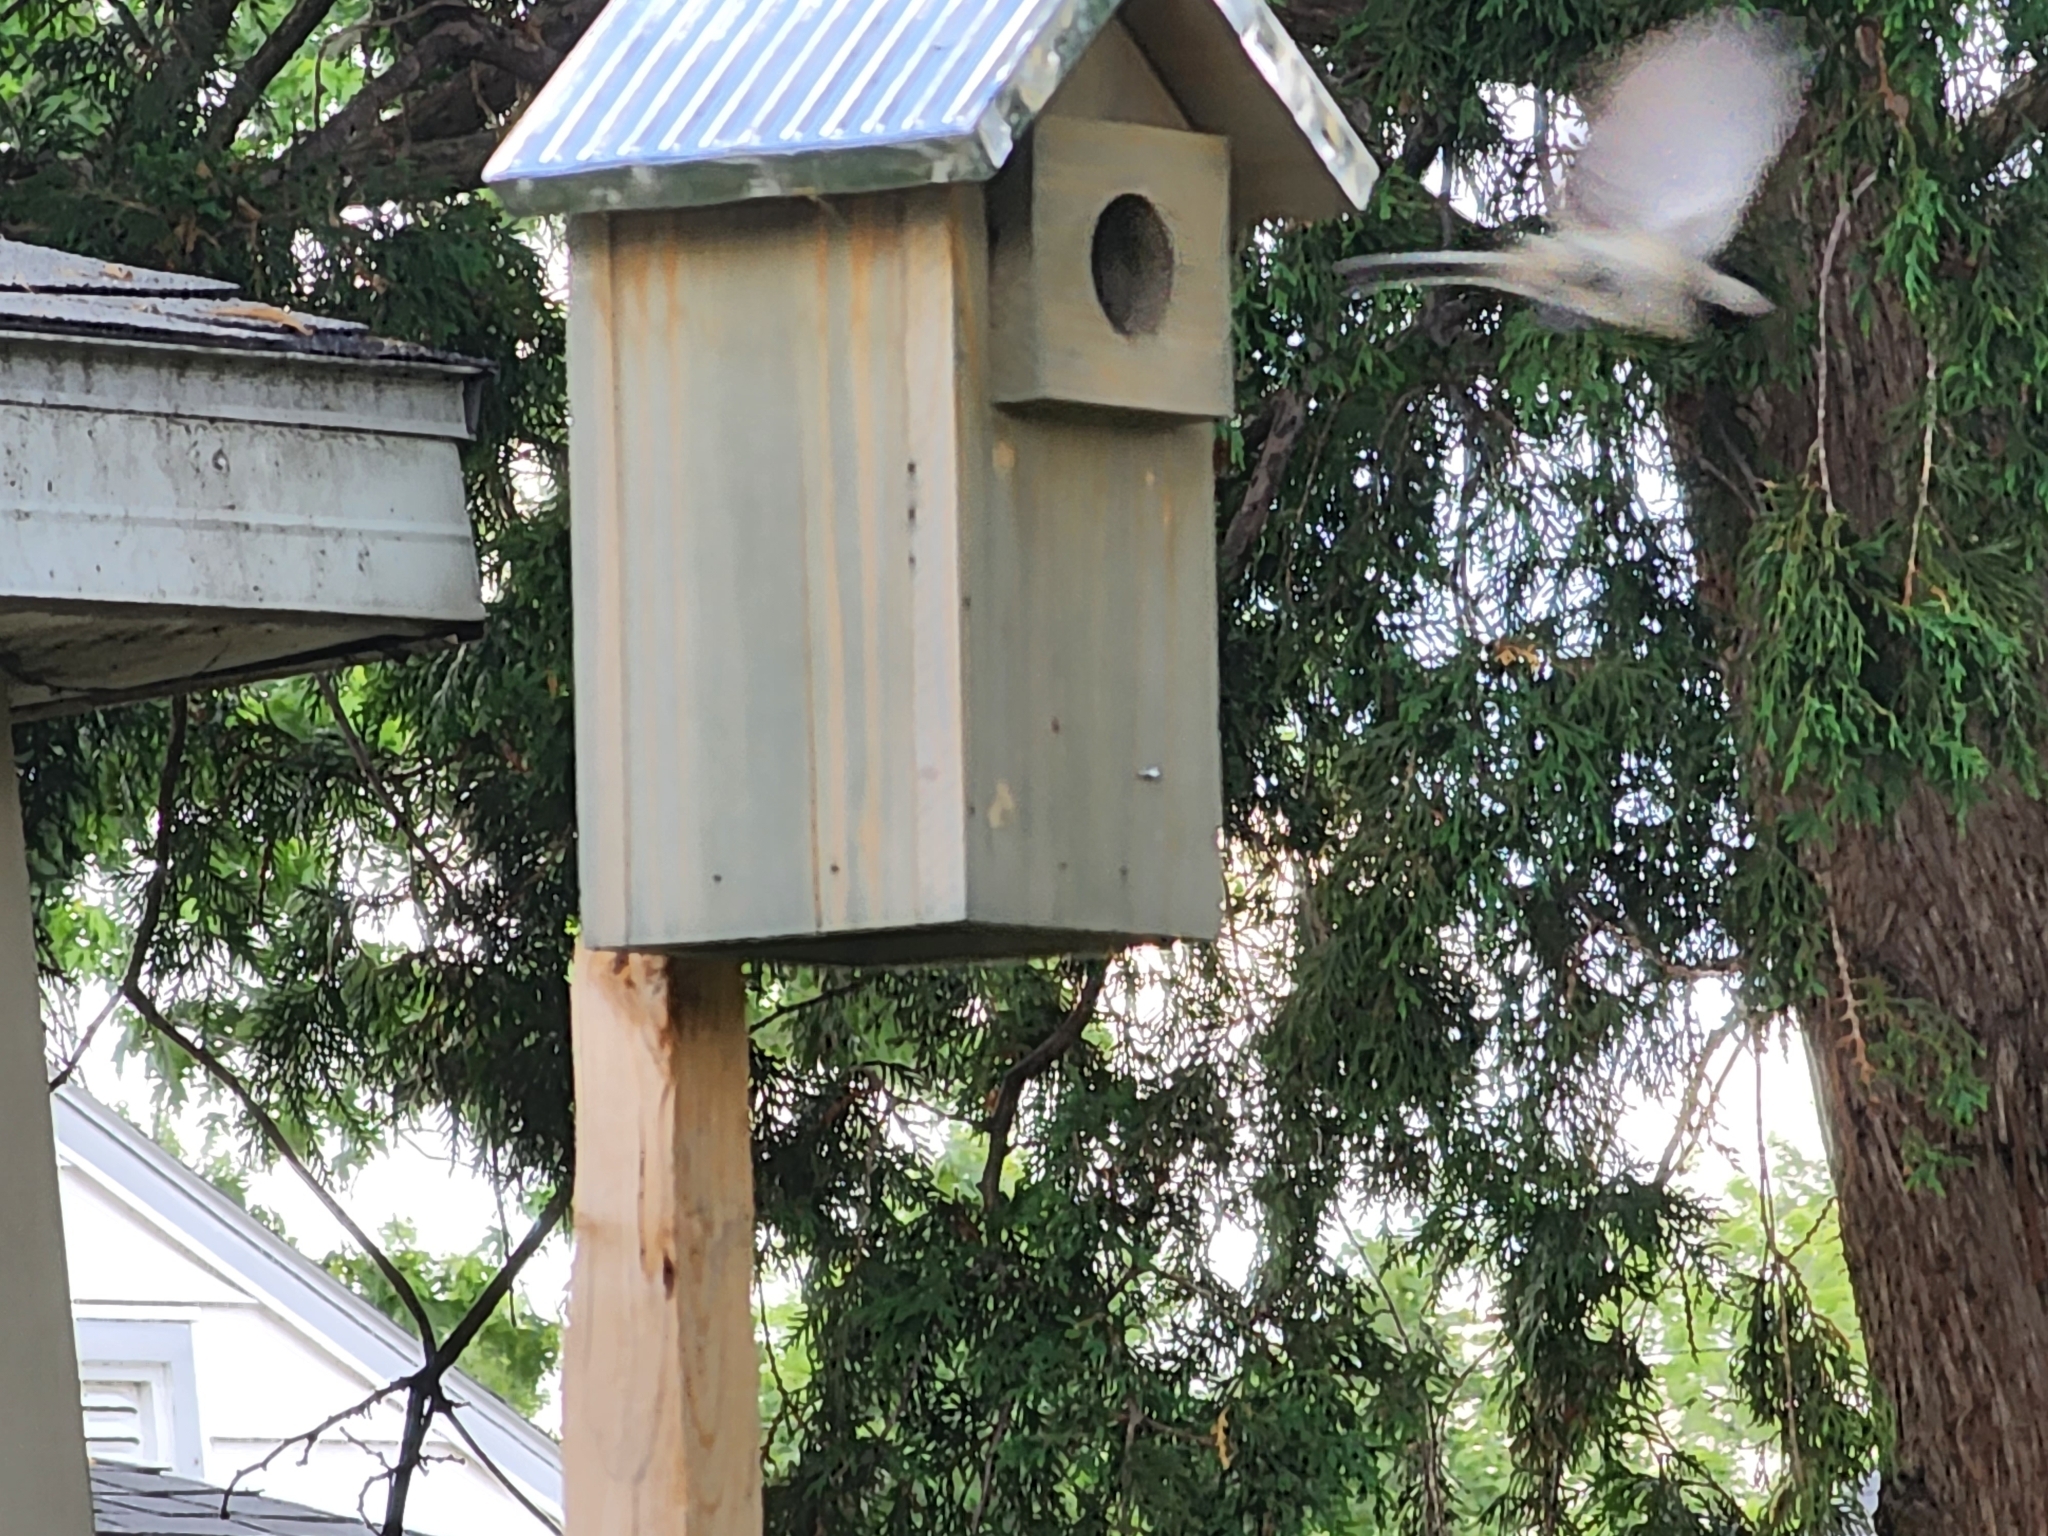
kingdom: Animalia
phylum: Chordata
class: Aves
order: Passeriformes
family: Paridae
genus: Poecile
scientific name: Poecile carolinensis
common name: Carolina chickadee
